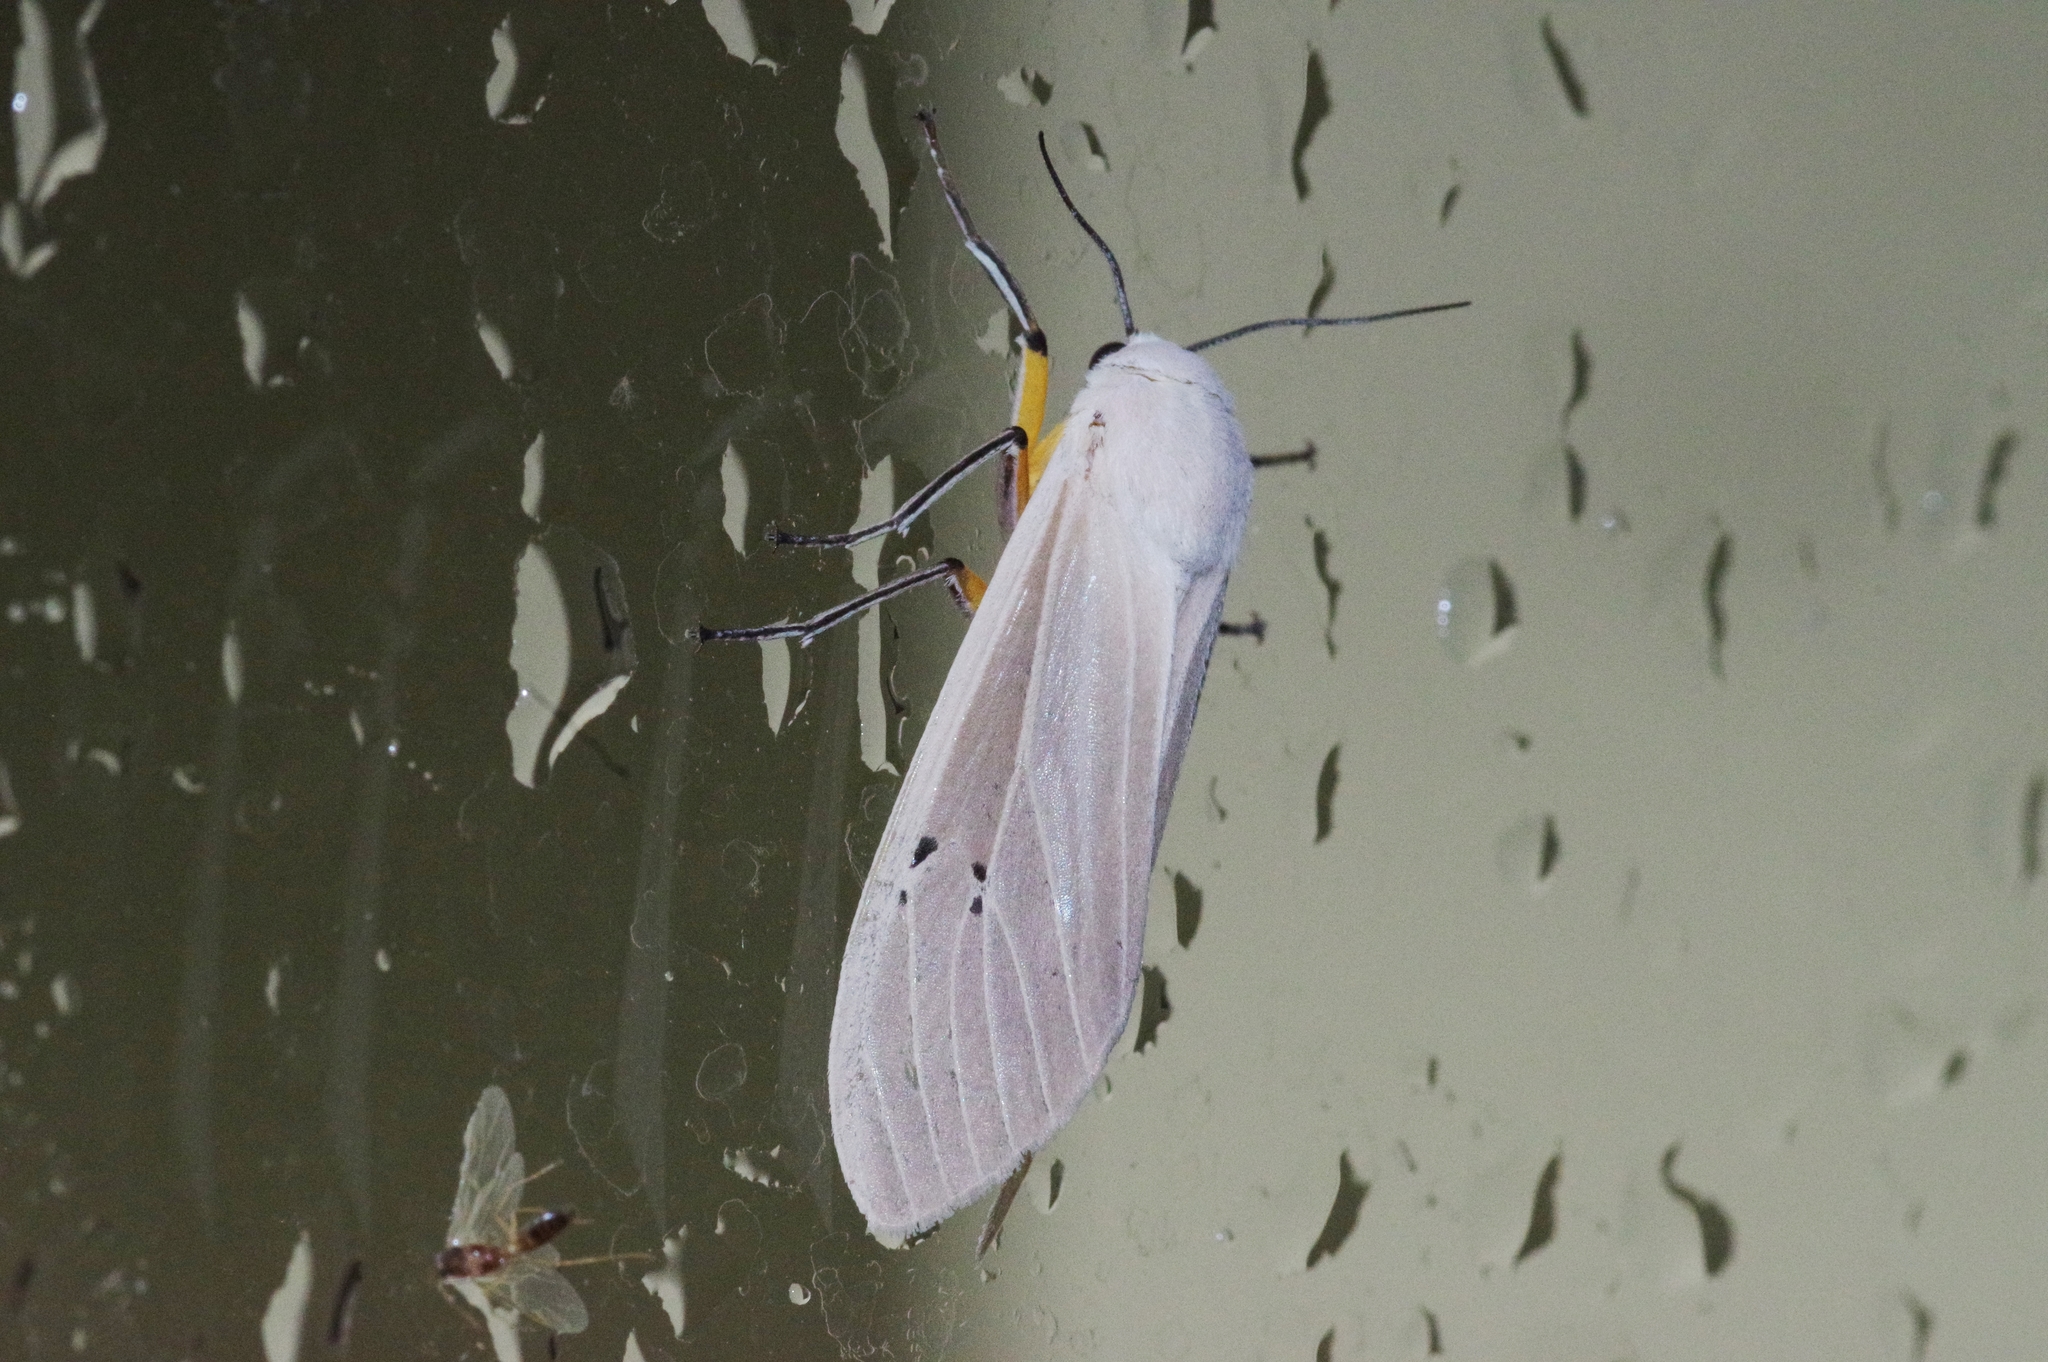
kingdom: Animalia
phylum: Arthropoda
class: Insecta
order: Lepidoptera
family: Erebidae
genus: Creatonotos
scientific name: Creatonotos transiens
